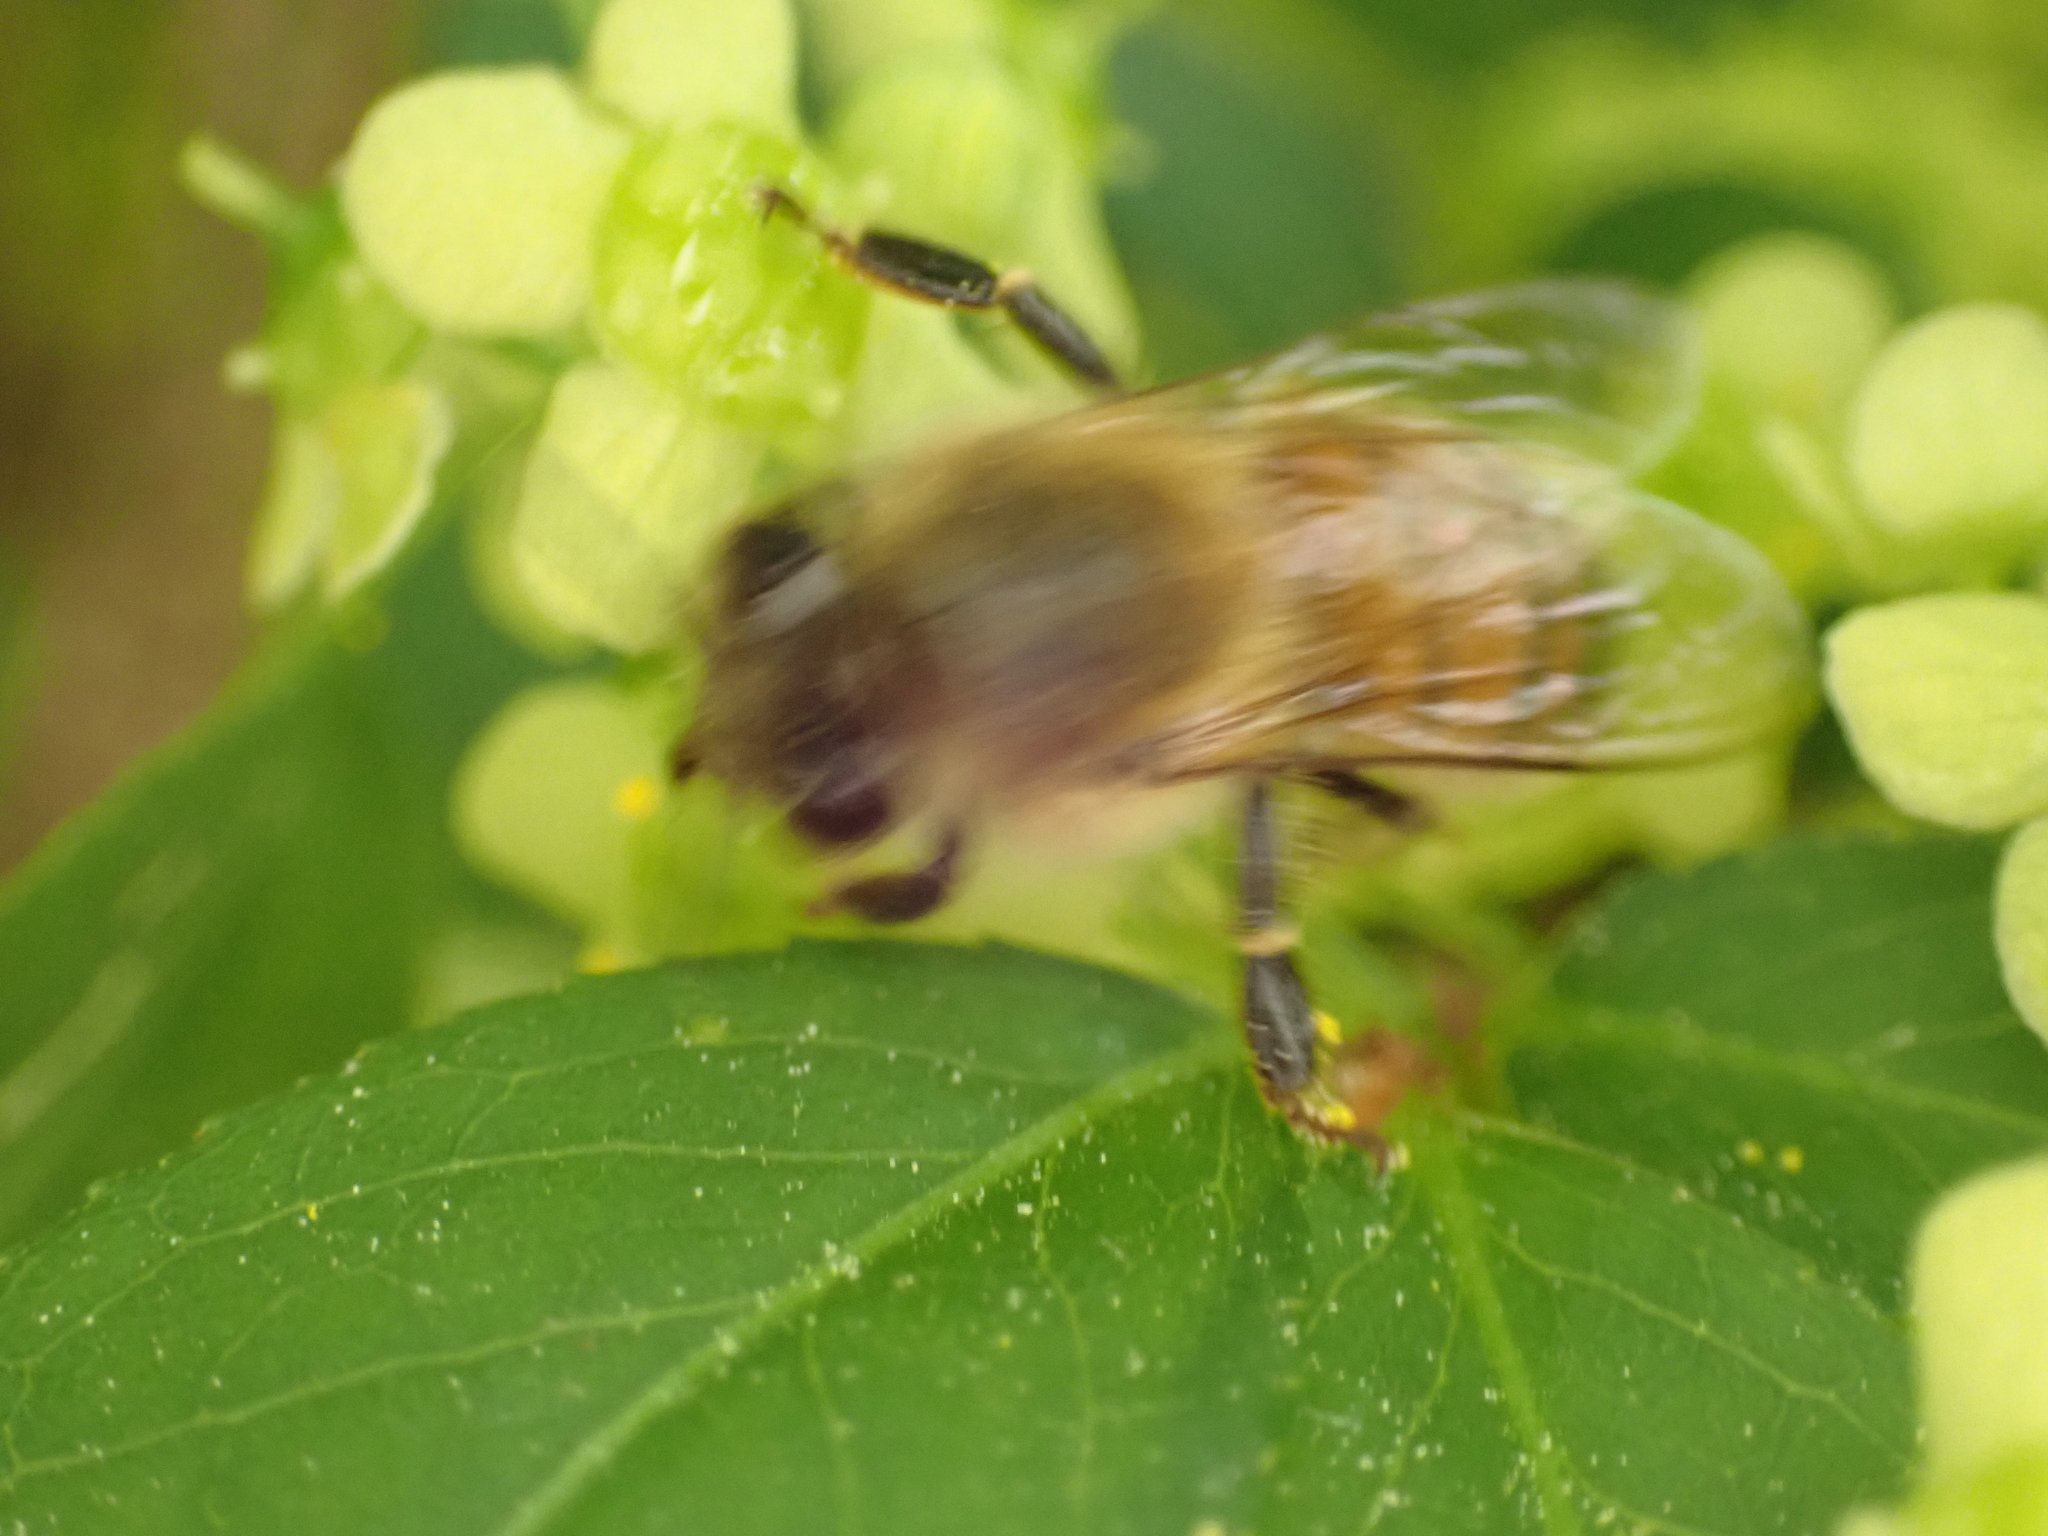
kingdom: Animalia
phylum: Arthropoda
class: Insecta
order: Hymenoptera
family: Apidae
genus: Apis
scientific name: Apis mellifera
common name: Honey bee
